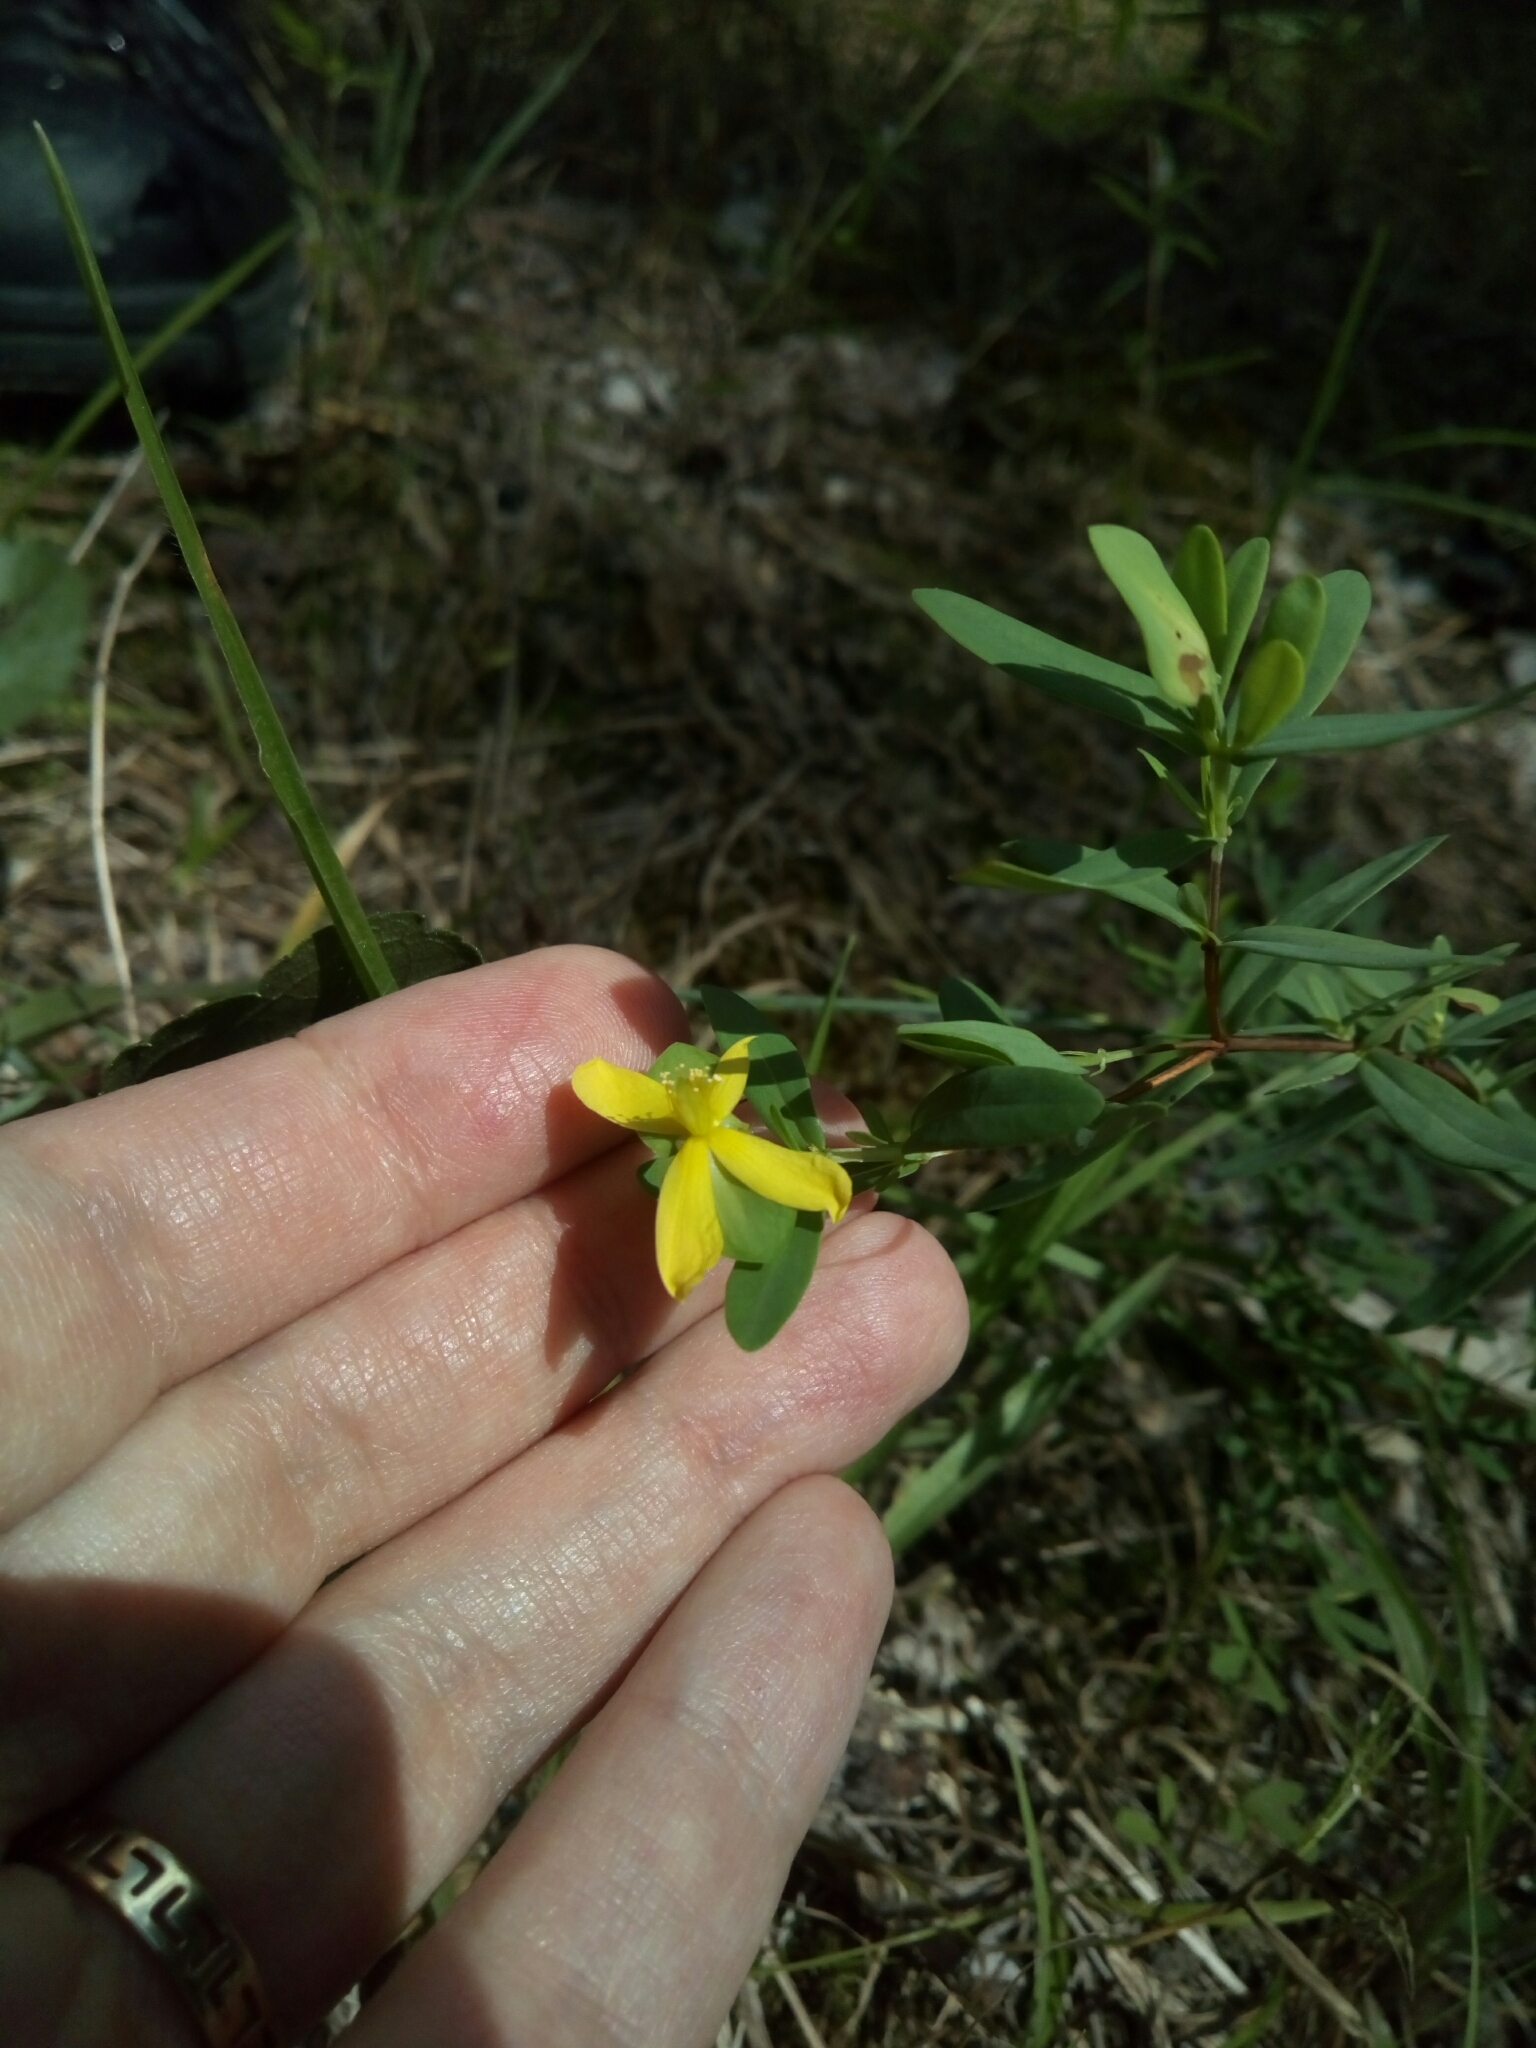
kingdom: Plantae
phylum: Tracheophyta
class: Magnoliopsida
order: Malpighiales
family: Hypericaceae
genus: Hypericum
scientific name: Hypericum hypericoides
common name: St. andrew's cross
